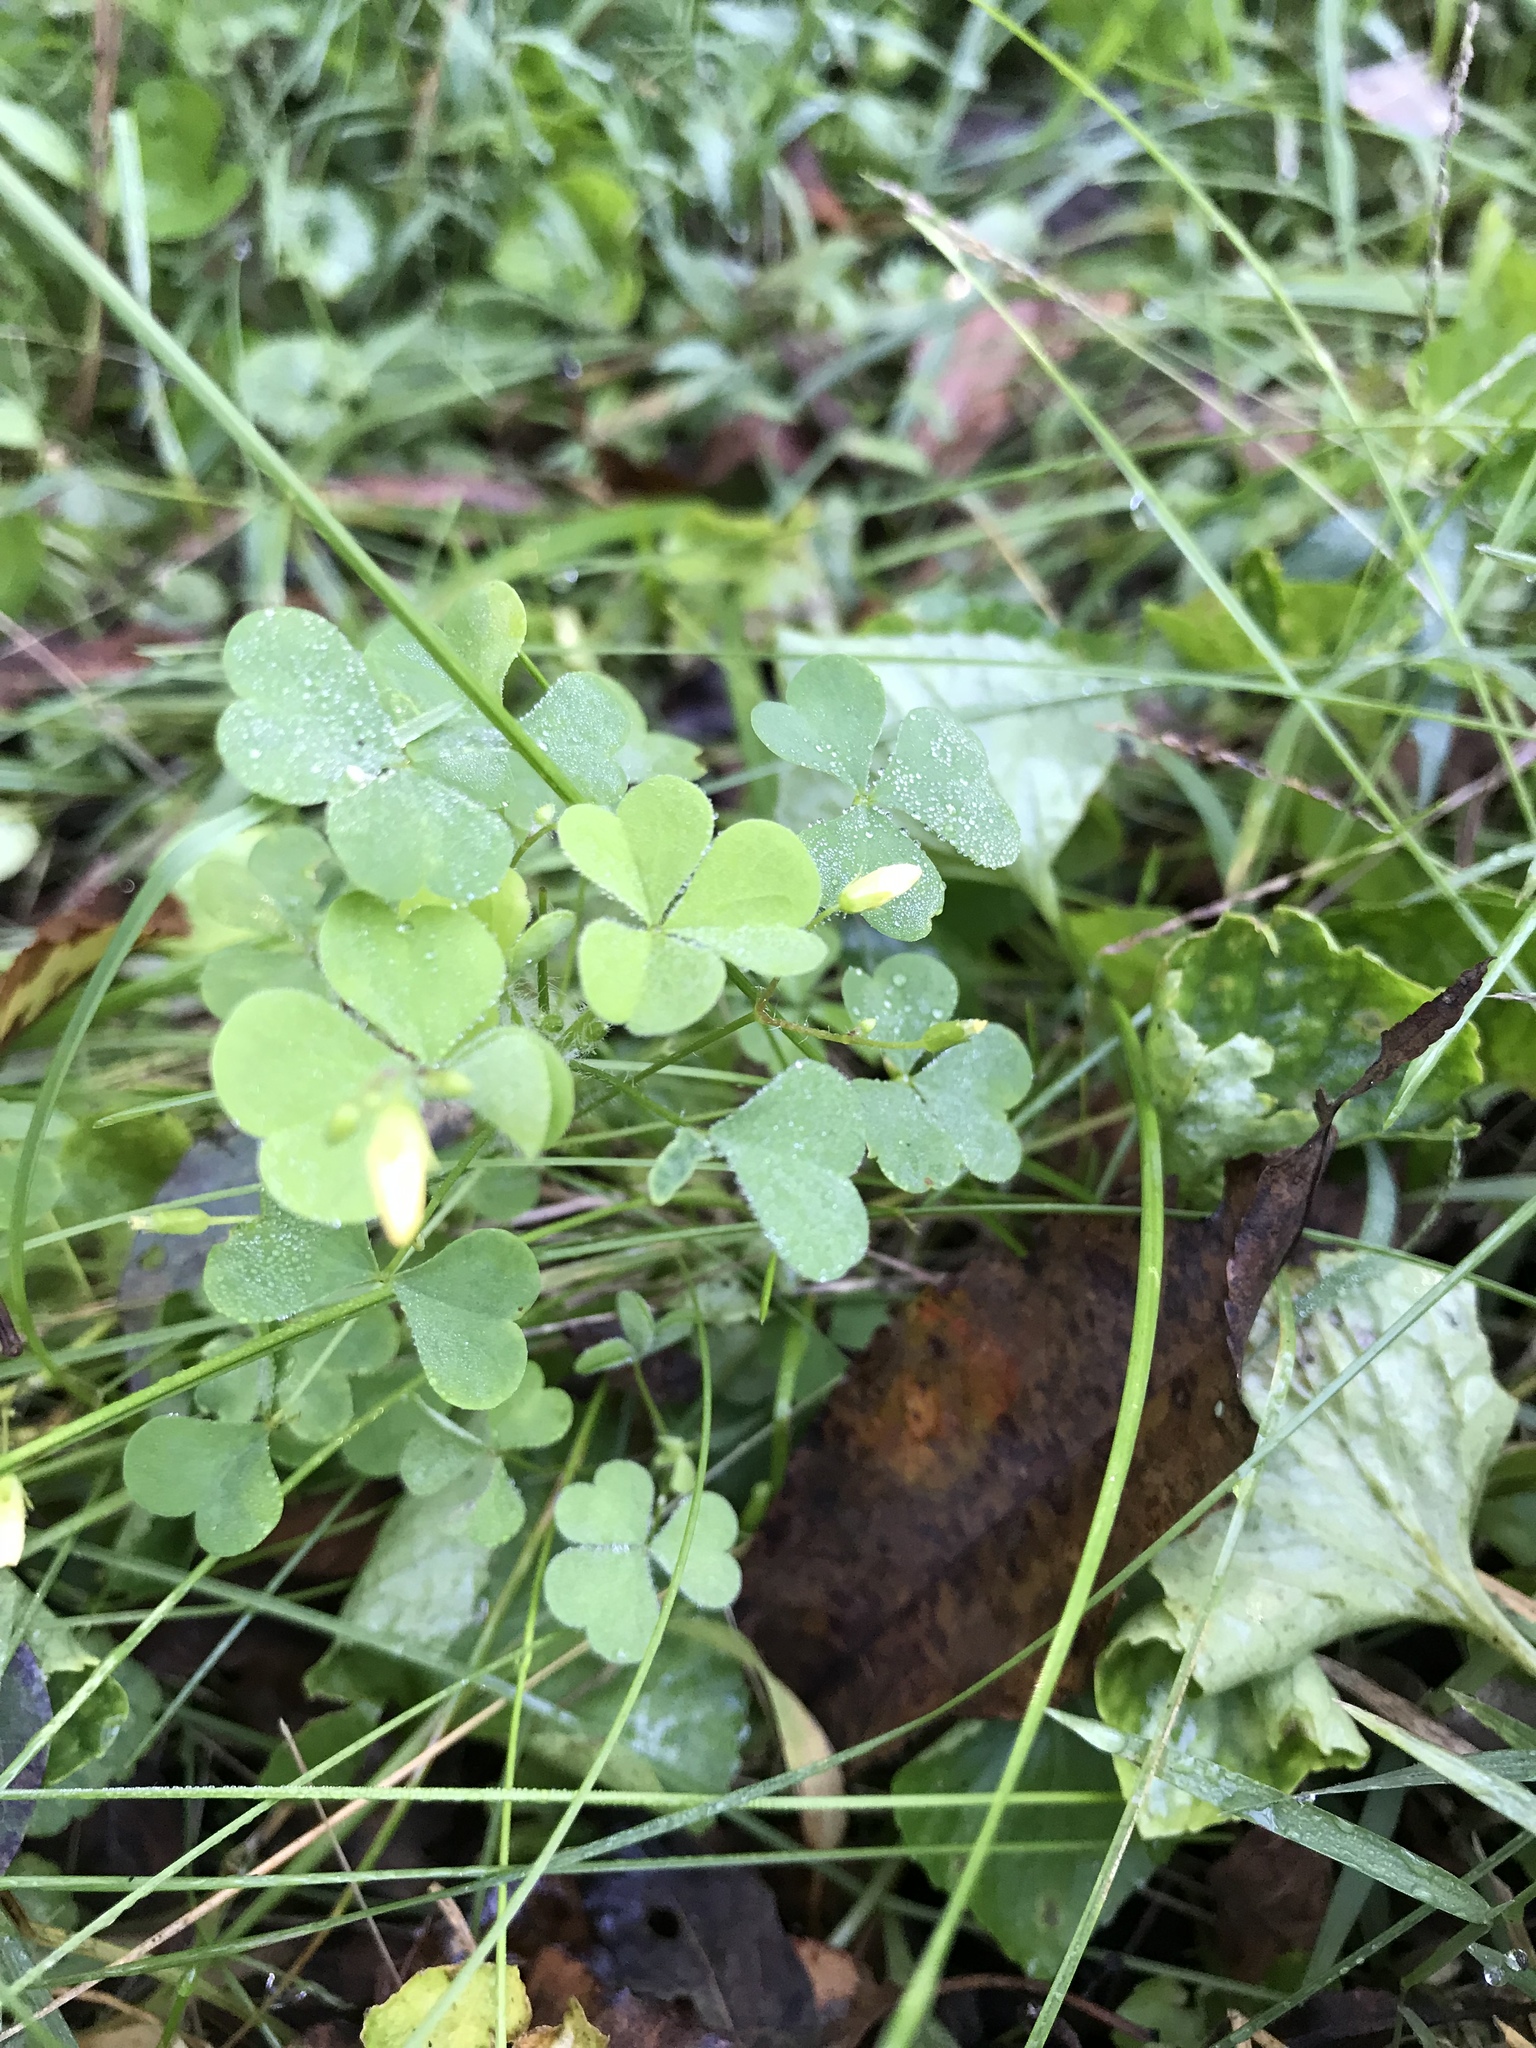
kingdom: Plantae
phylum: Tracheophyta
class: Magnoliopsida
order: Oxalidales
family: Oxalidaceae
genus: Oxalis
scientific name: Oxalis stricta
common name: Upright yellow-sorrel
